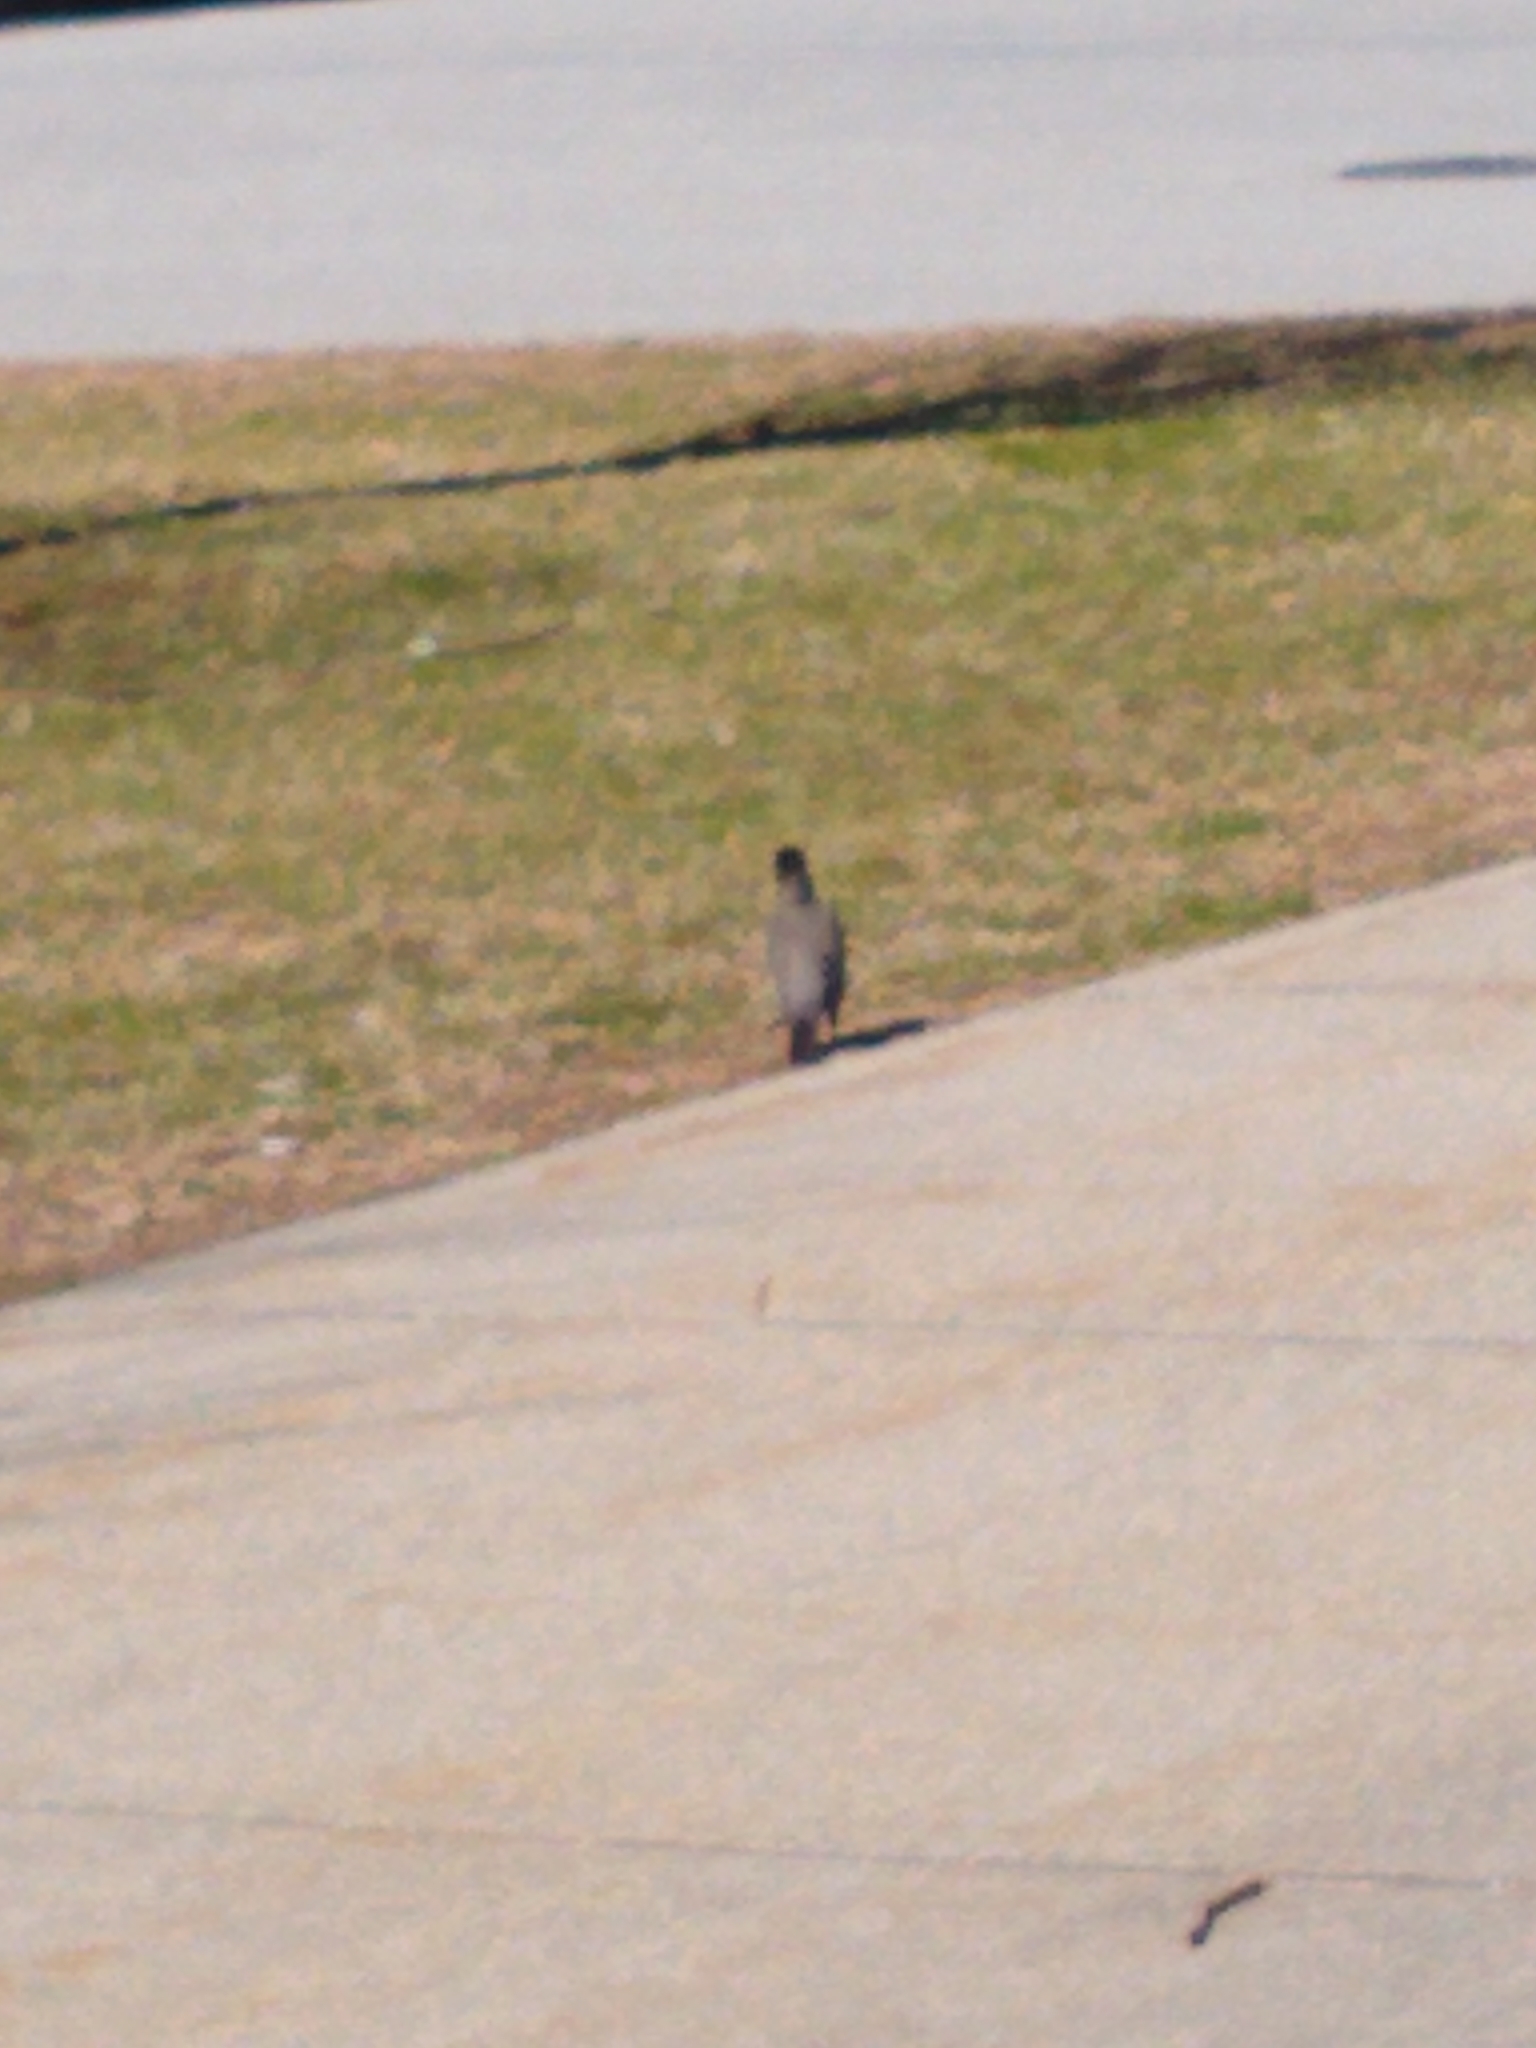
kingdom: Animalia
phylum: Chordata
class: Aves
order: Passeriformes
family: Turdidae
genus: Turdus
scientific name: Turdus migratorius
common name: American robin
